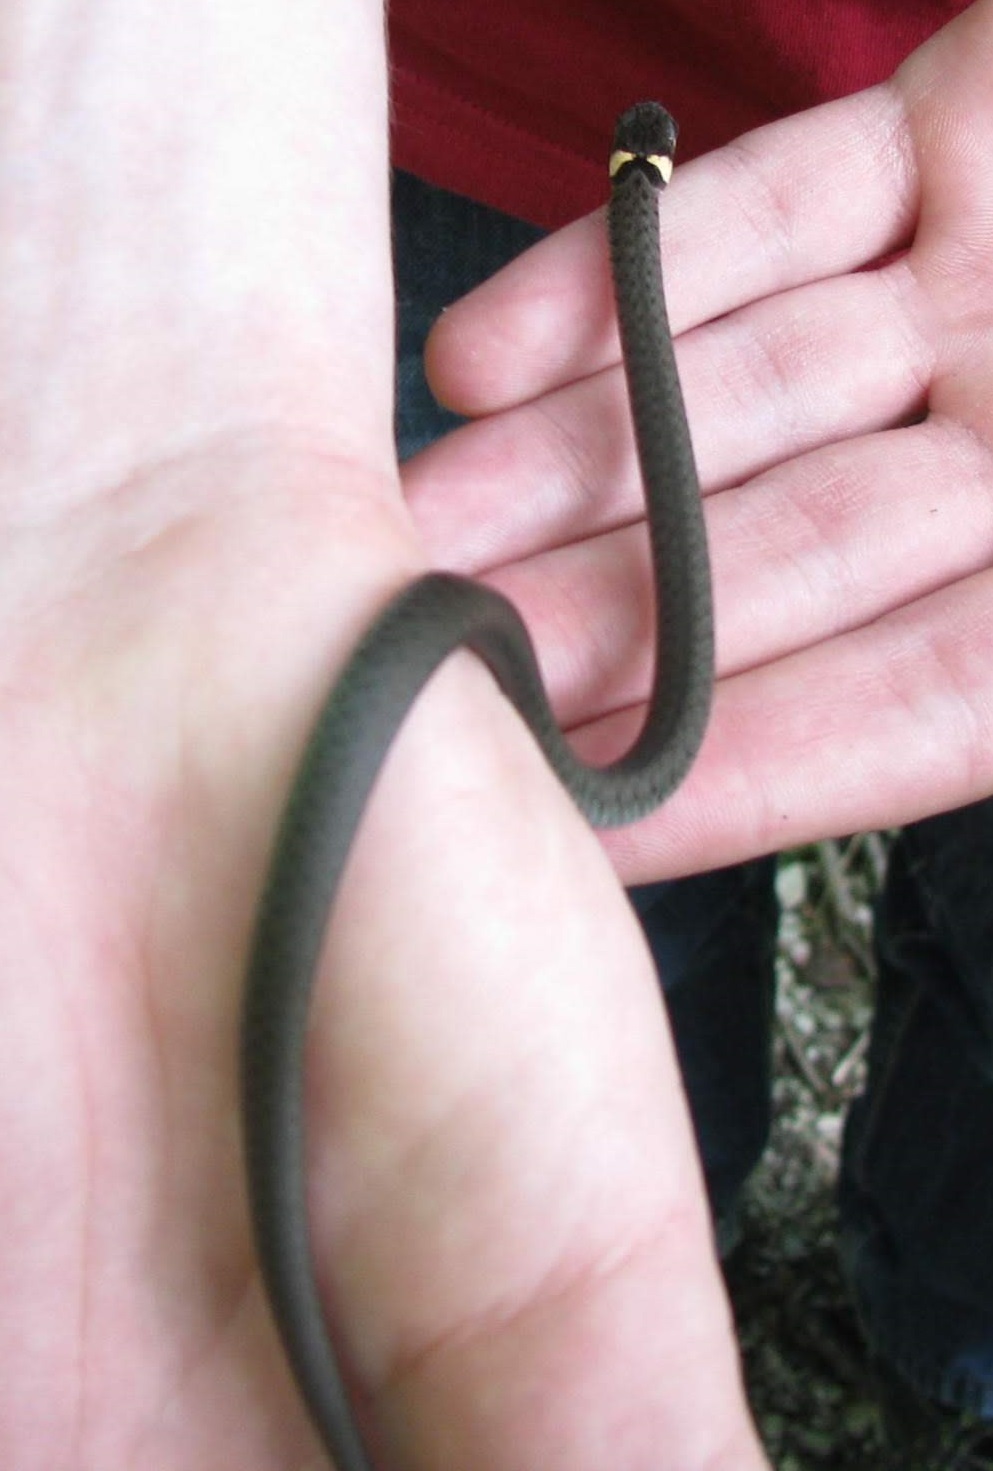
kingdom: Animalia
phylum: Chordata
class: Squamata
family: Colubridae
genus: Natrix
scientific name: Natrix natrix
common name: Grass snake
